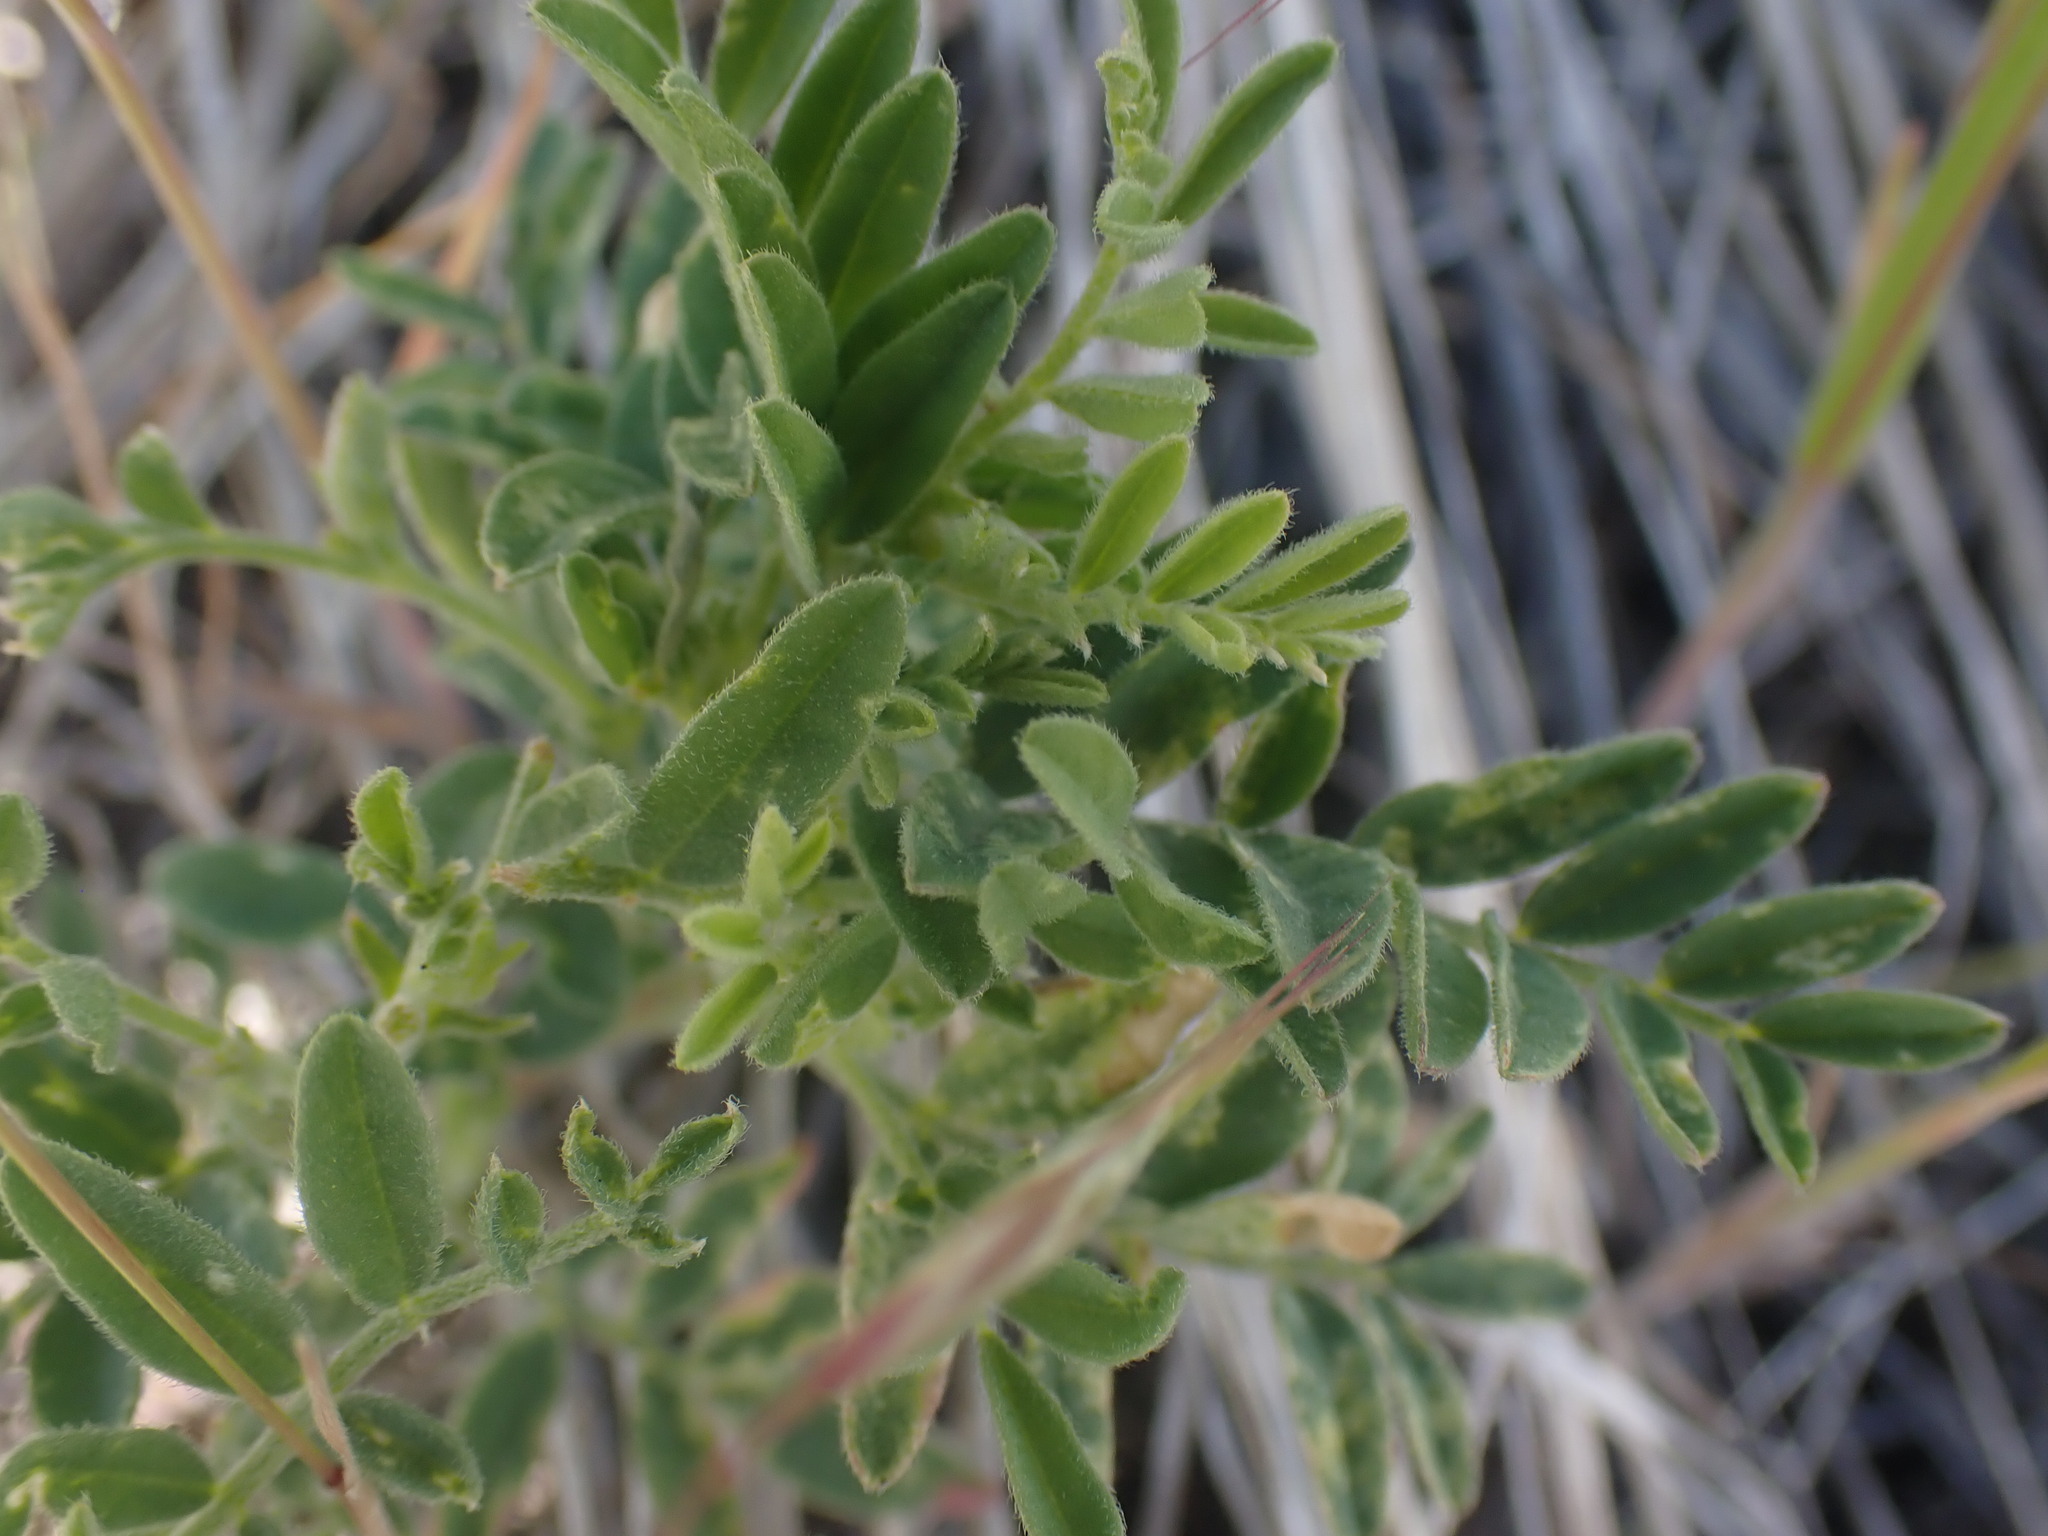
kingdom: Plantae
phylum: Tracheophyta
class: Magnoliopsida
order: Fabales
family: Fabaceae
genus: Astragalus
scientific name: Astragalus collinus
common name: Hill milk-vetch
